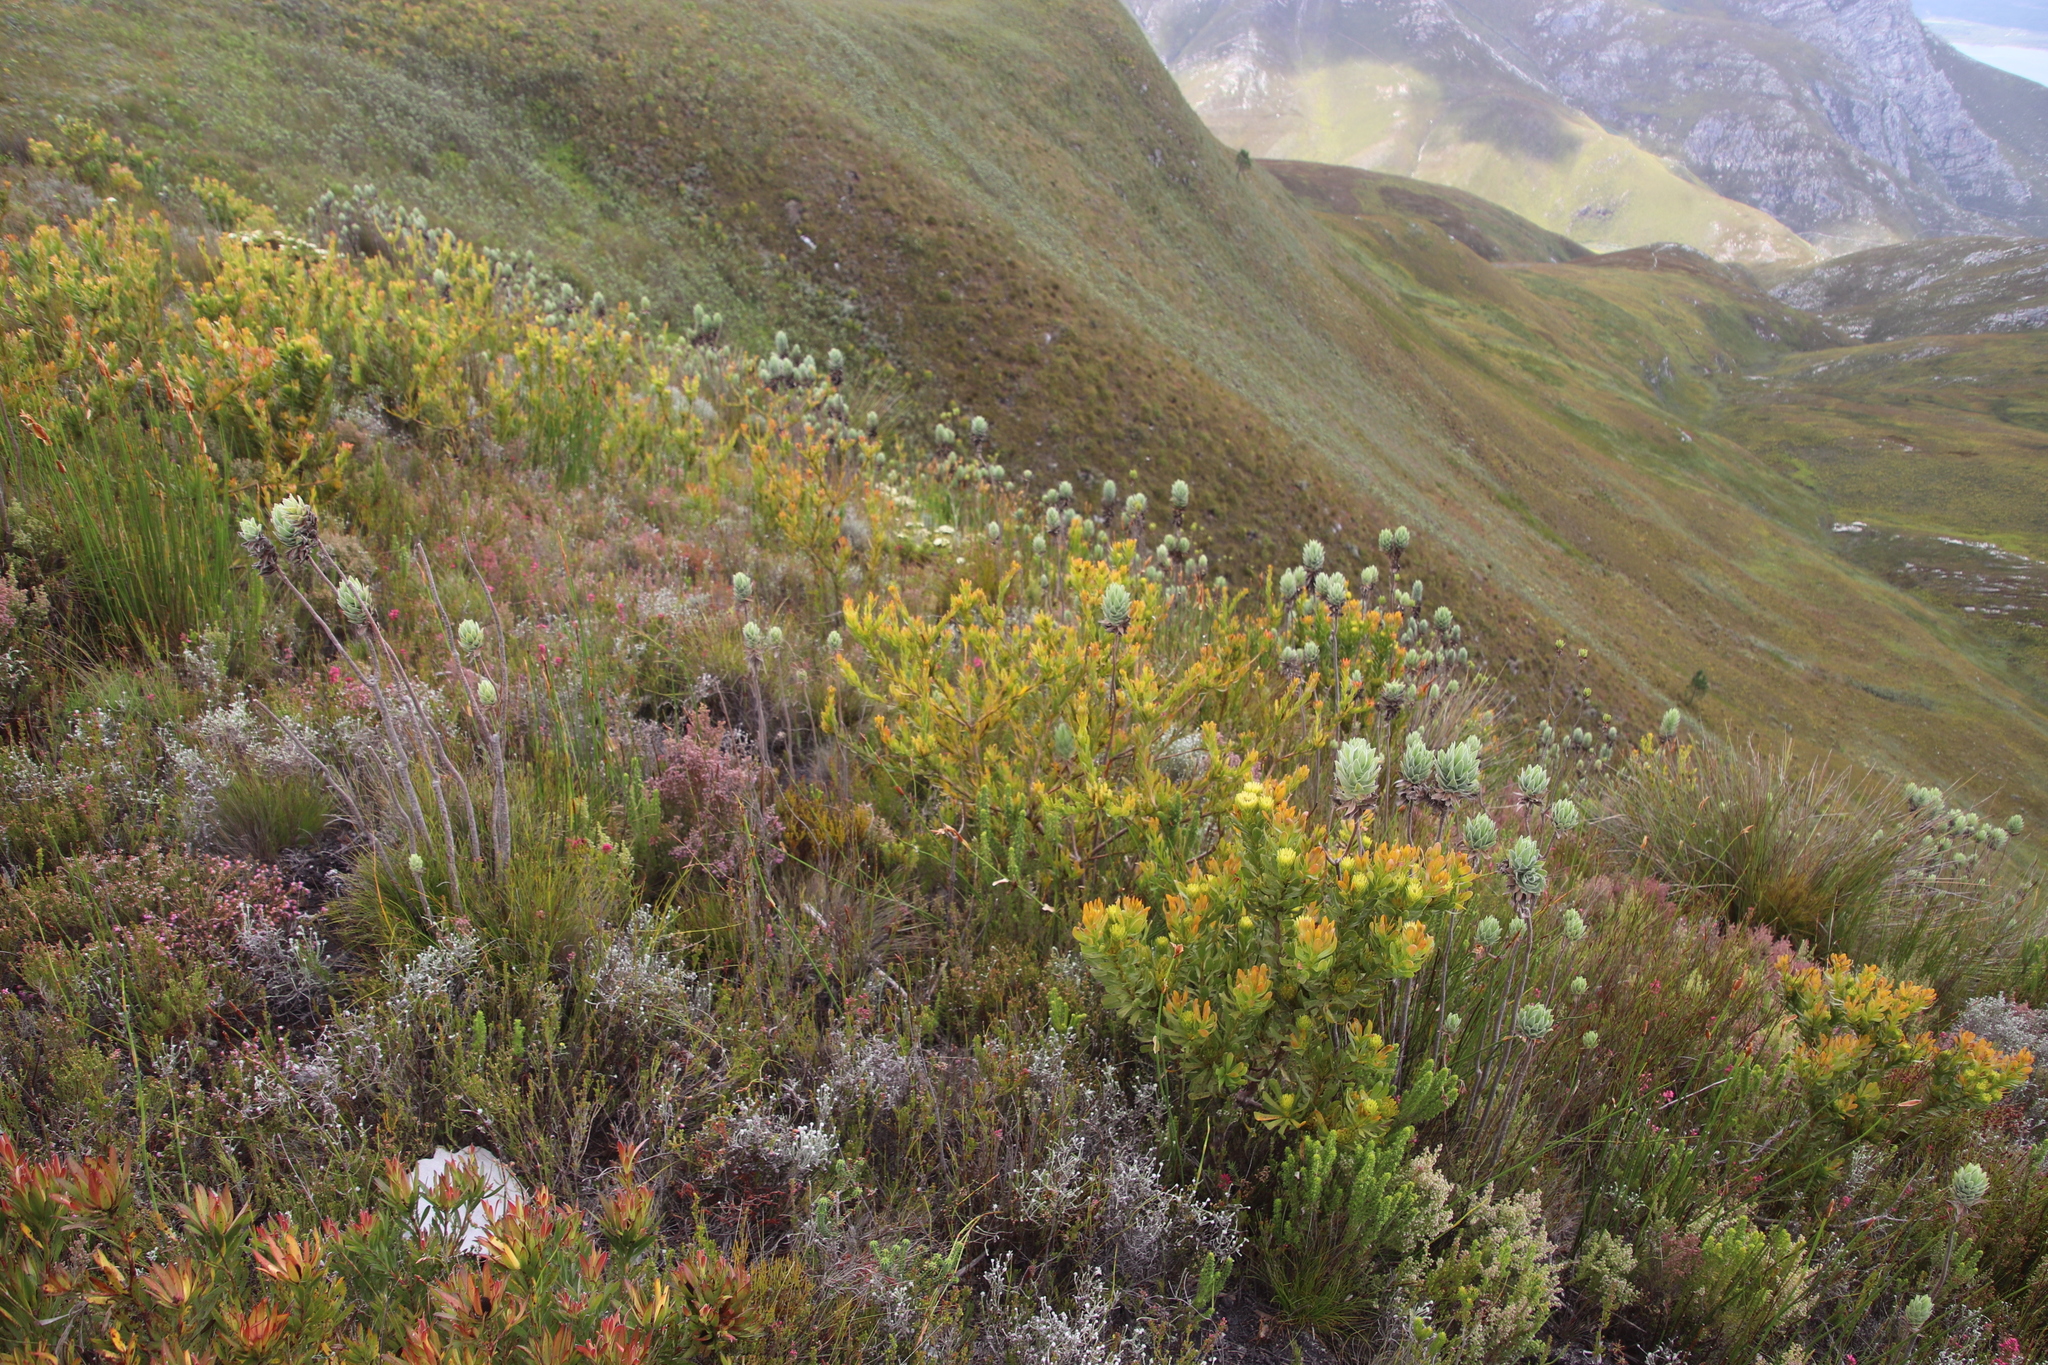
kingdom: Plantae
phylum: Tracheophyta
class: Magnoliopsida
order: Proteales
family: Proteaceae
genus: Aulax
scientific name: Aulax umbellata
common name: Broad-leaf featherbush
